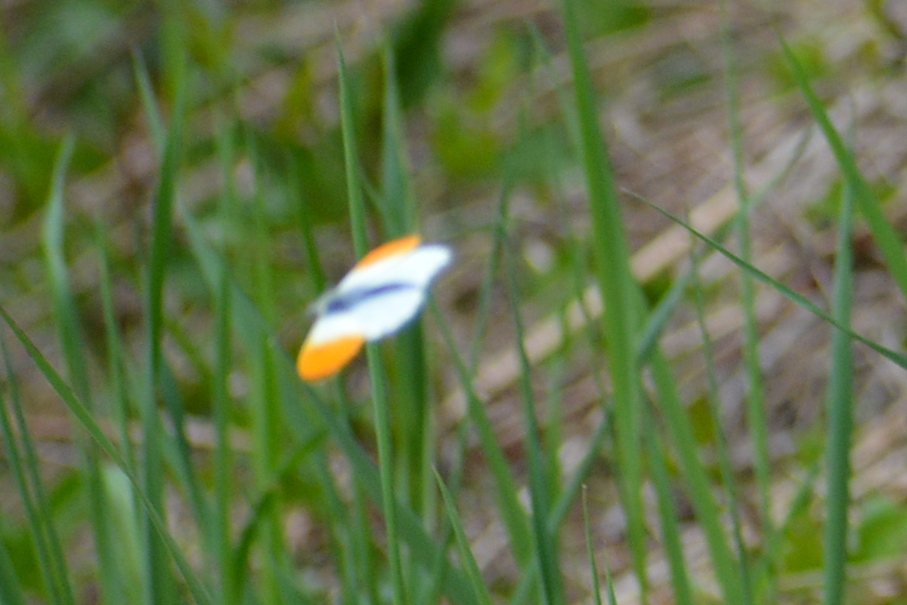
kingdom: Animalia
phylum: Arthropoda
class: Insecta
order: Lepidoptera
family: Pieridae
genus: Anthocharis
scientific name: Anthocharis cardamines
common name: Orange-tip
